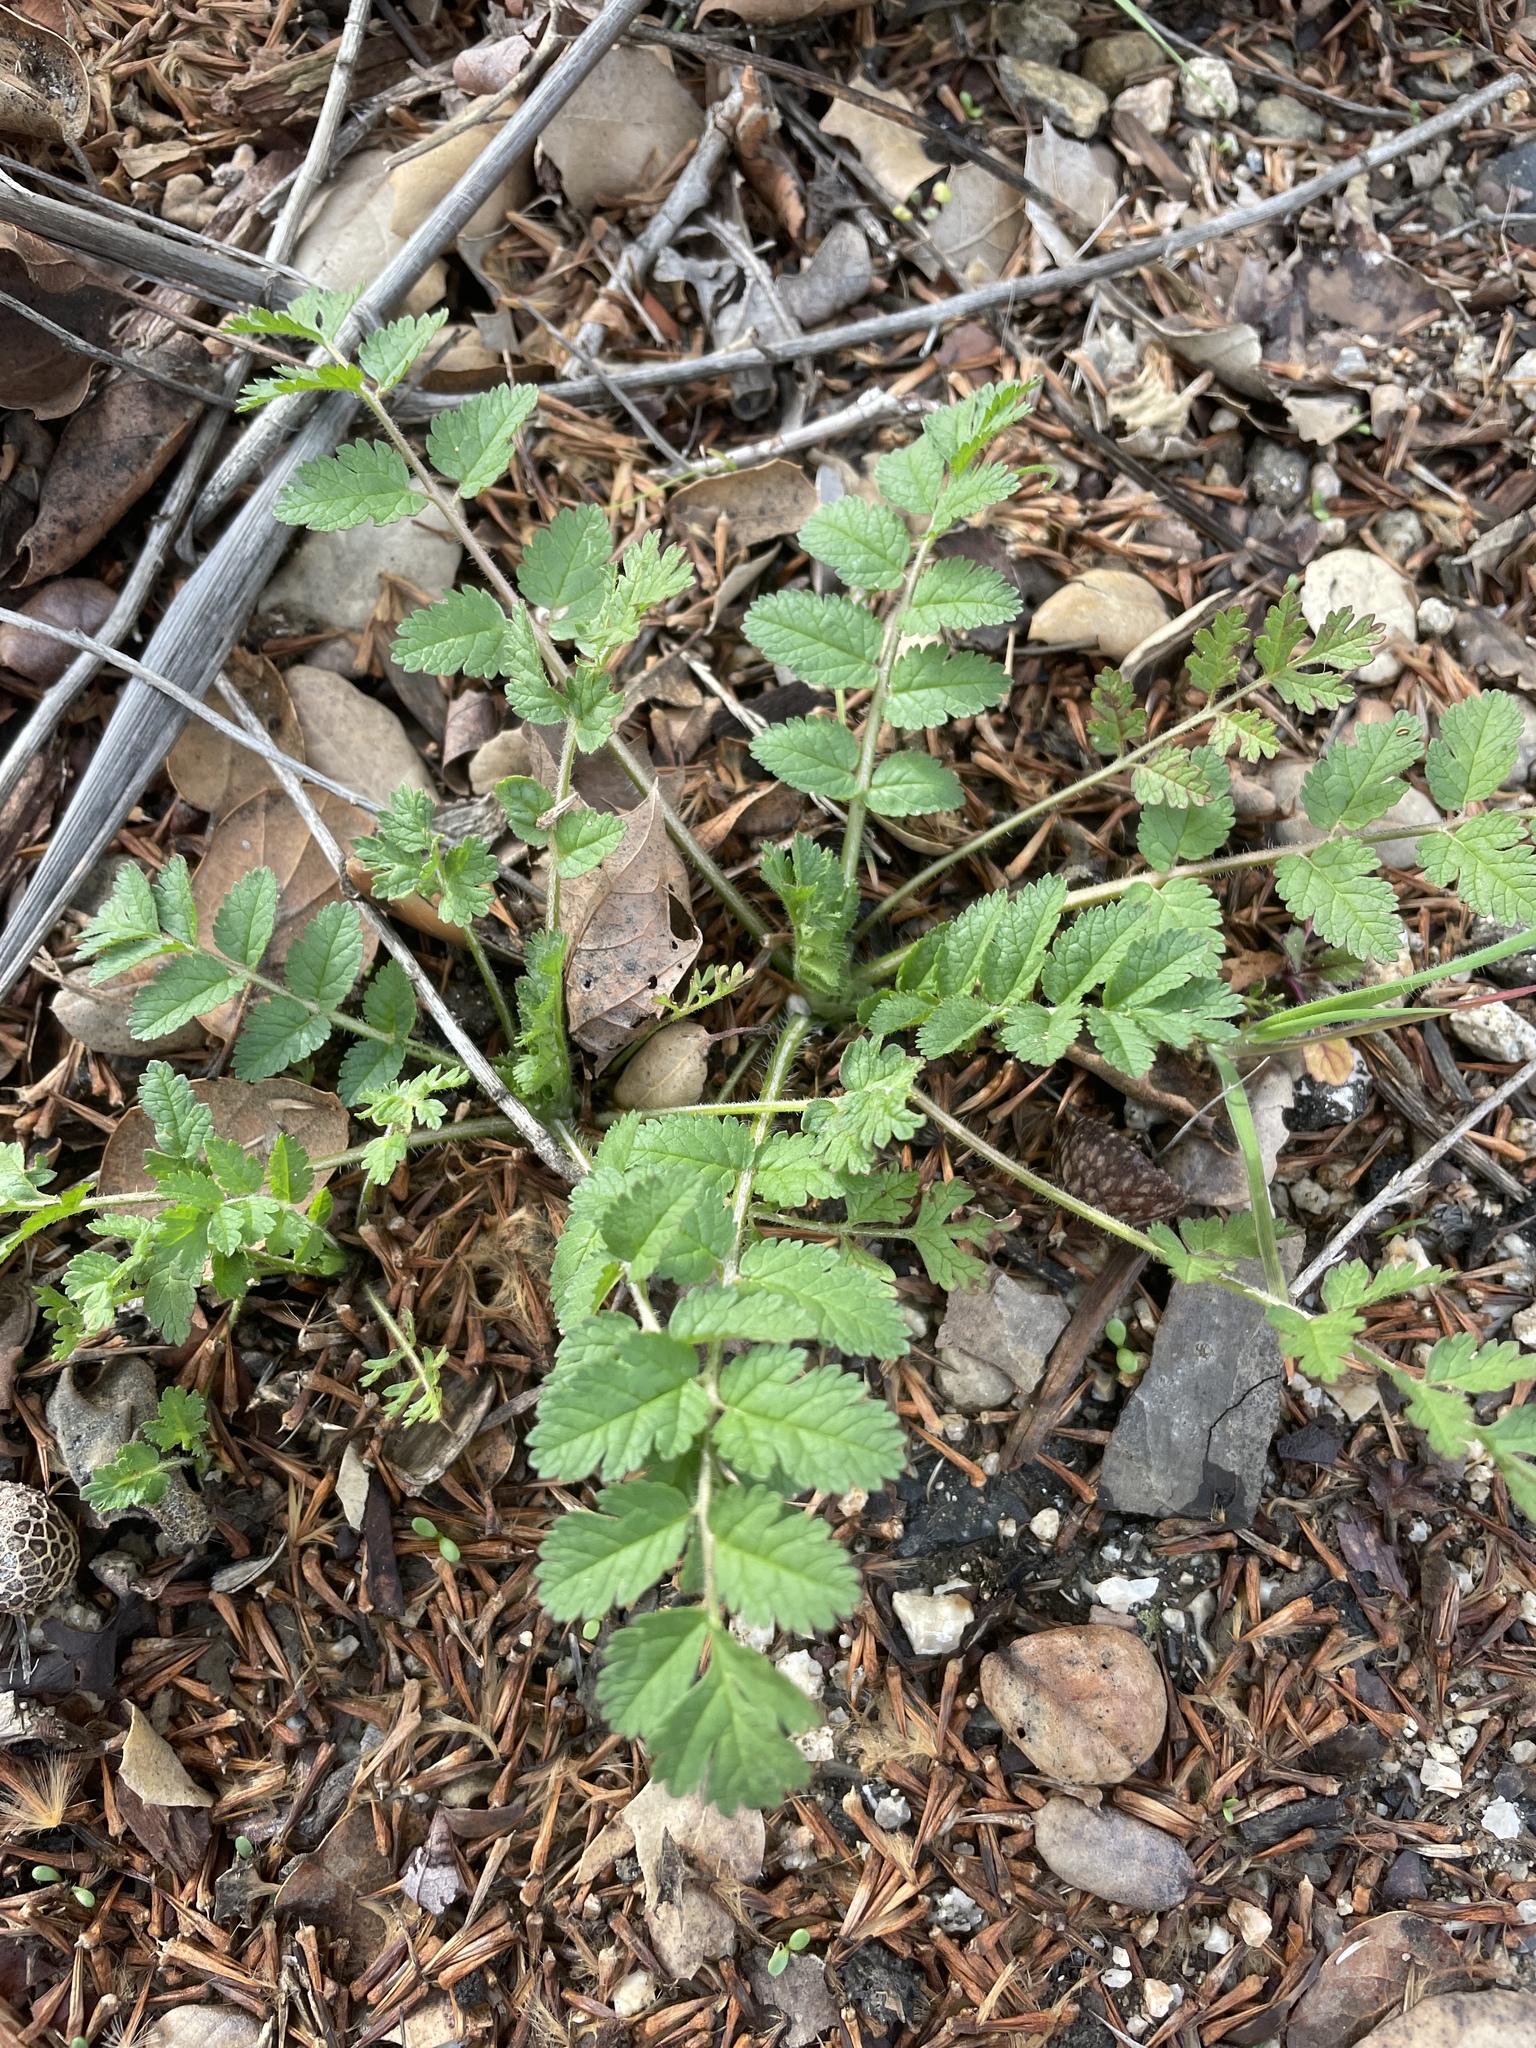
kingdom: Plantae
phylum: Tracheophyta
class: Magnoliopsida
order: Geraniales
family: Geraniaceae
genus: Erodium
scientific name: Erodium moschatum
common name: Musk stork's-bill
